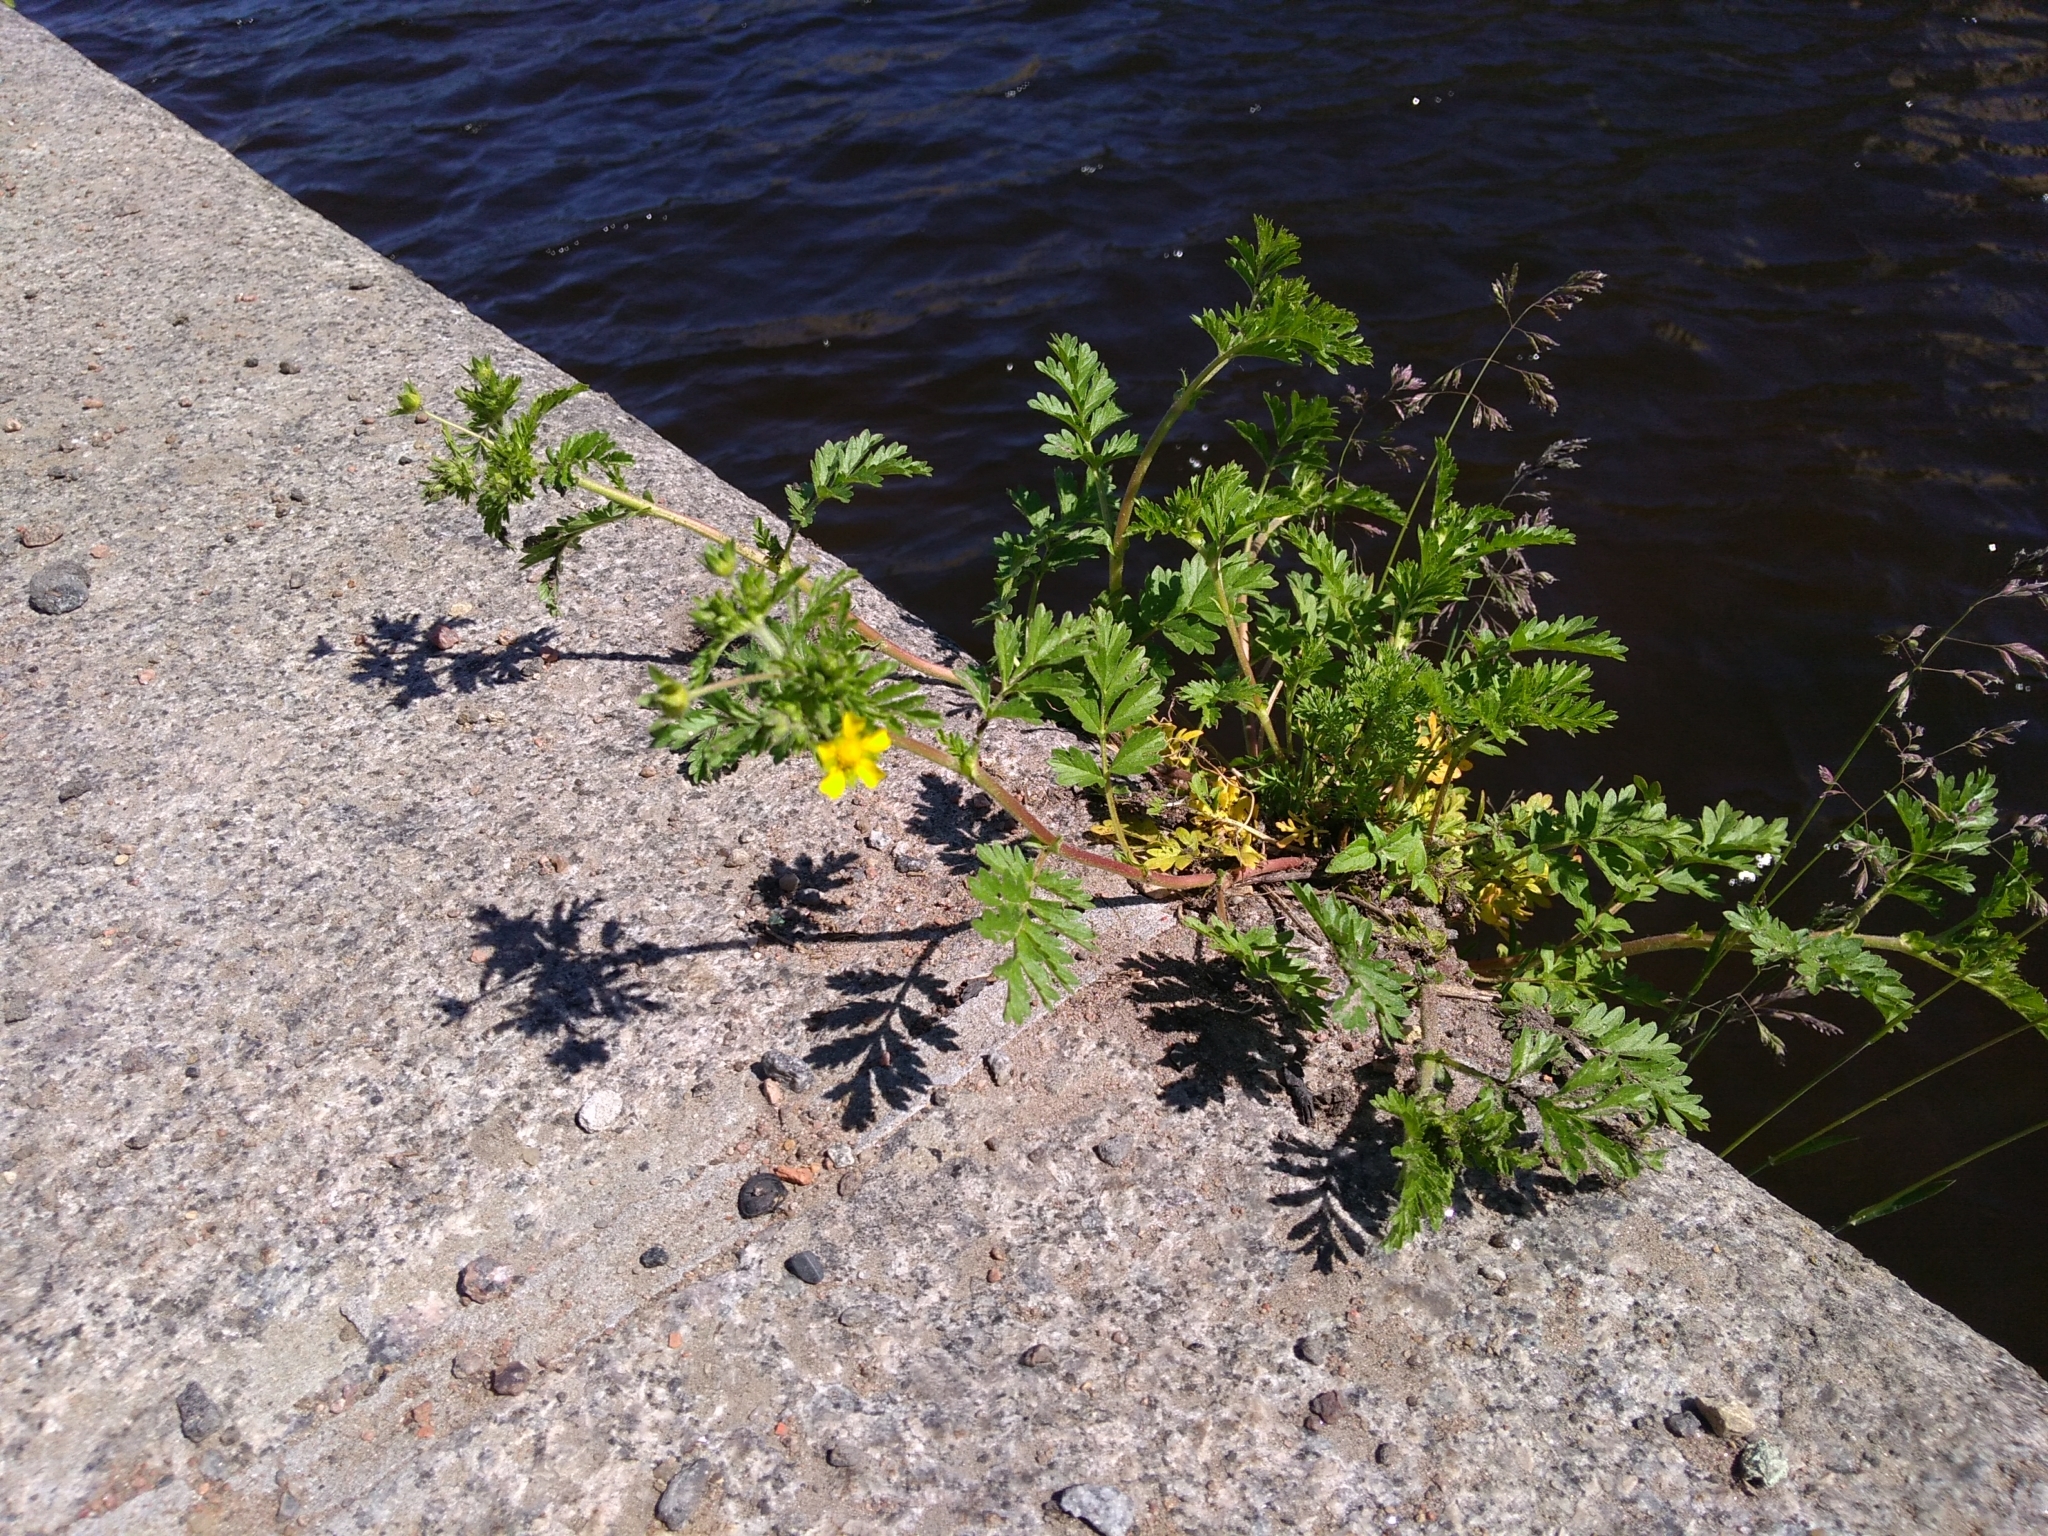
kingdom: Plantae
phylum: Tracheophyta
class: Magnoliopsida
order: Rosales
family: Rosaceae
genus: Potentilla
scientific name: Potentilla supina
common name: Prostrate cinquefoil
